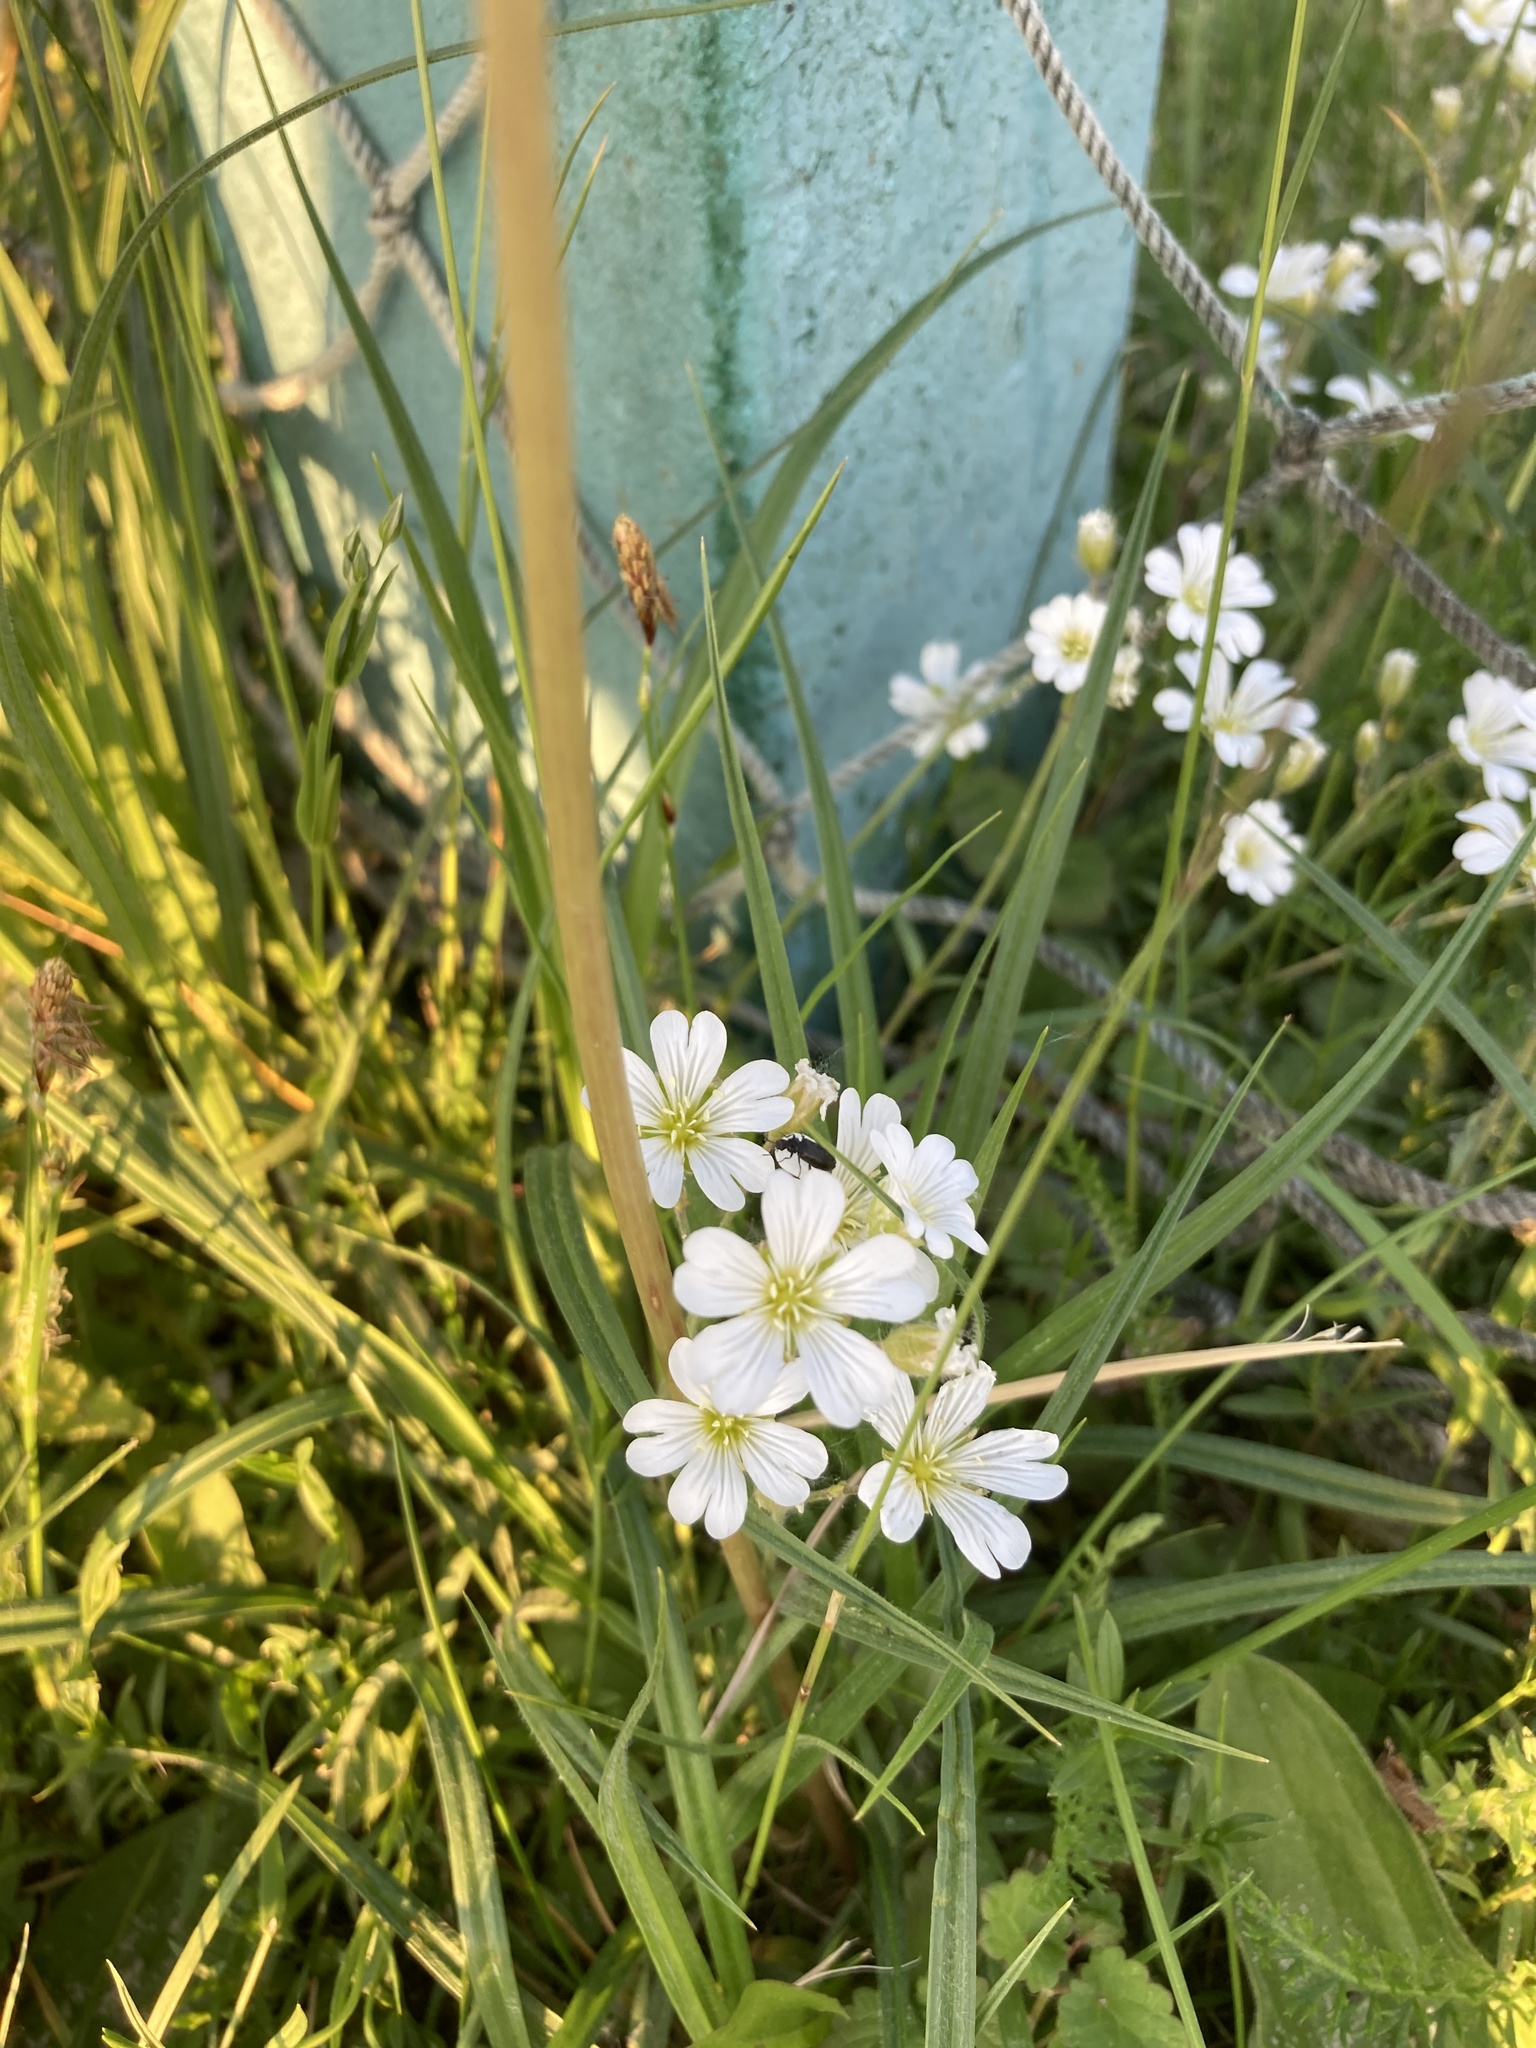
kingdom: Plantae
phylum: Tracheophyta
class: Magnoliopsida
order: Caryophyllales
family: Caryophyllaceae
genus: Cerastium
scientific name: Cerastium arvense
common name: Field mouse-ear
